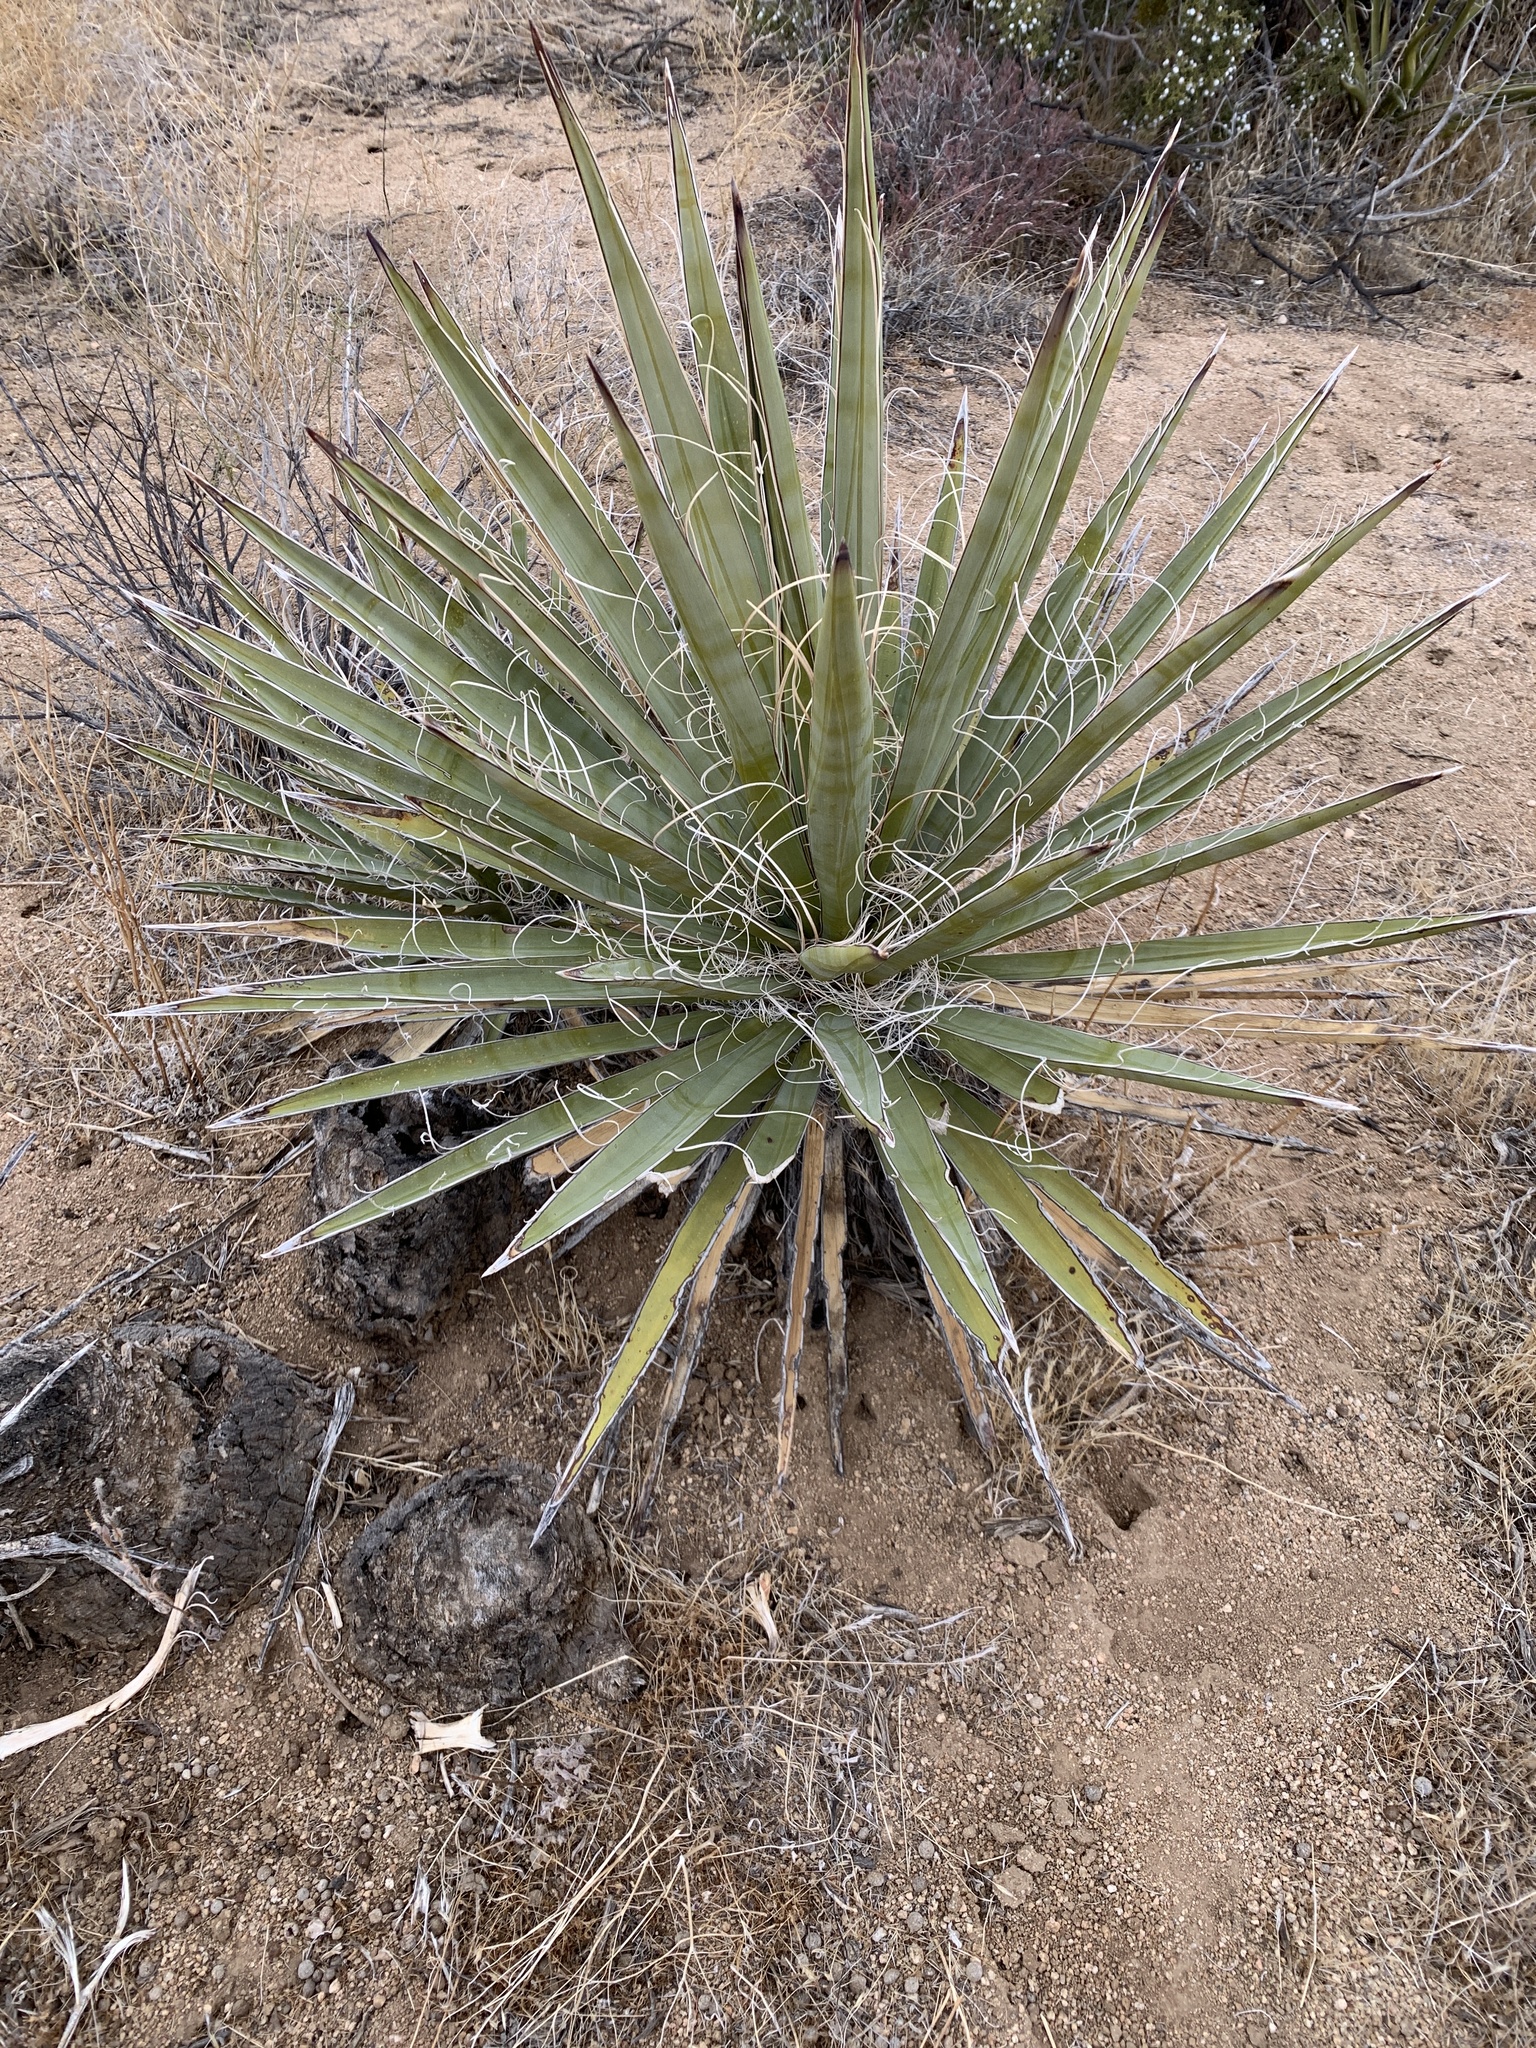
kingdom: Plantae
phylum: Tracheophyta
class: Liliopsida
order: Asparagales
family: Asparagaceae
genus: Yucca
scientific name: Yucca schidigera
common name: Mojave yucca
